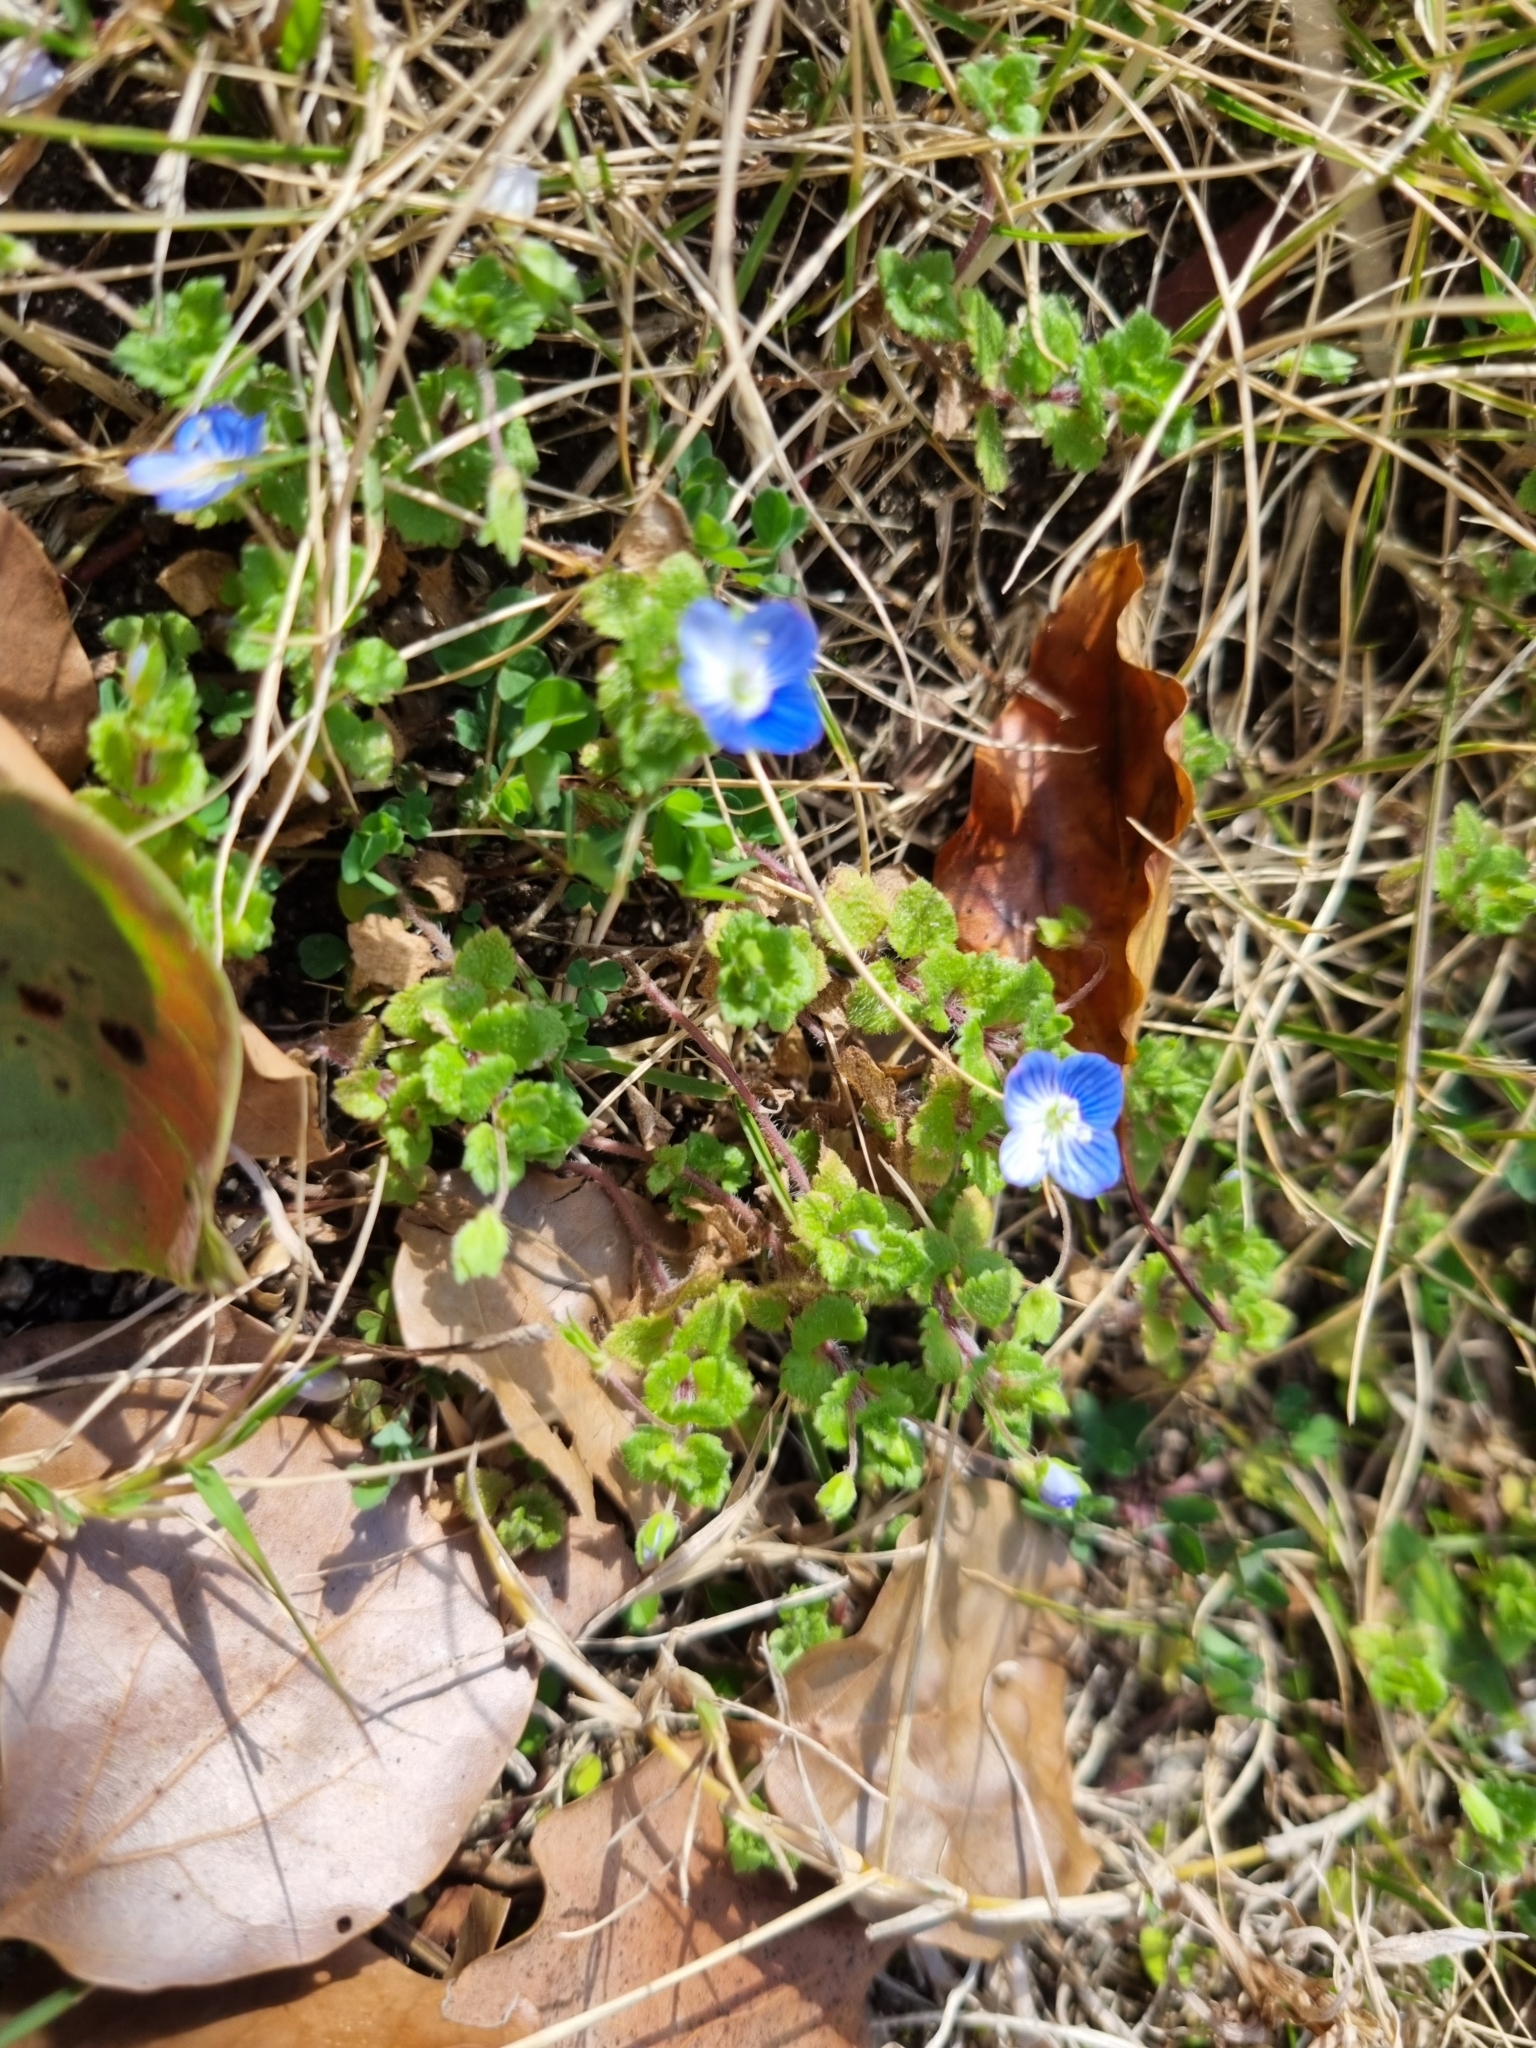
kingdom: Plantae
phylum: Tracheophyta
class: Magnoliopsida
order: Lamiales
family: Plantaginaceae
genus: Veronica
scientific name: Veronica persica
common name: Common field-speedwell
